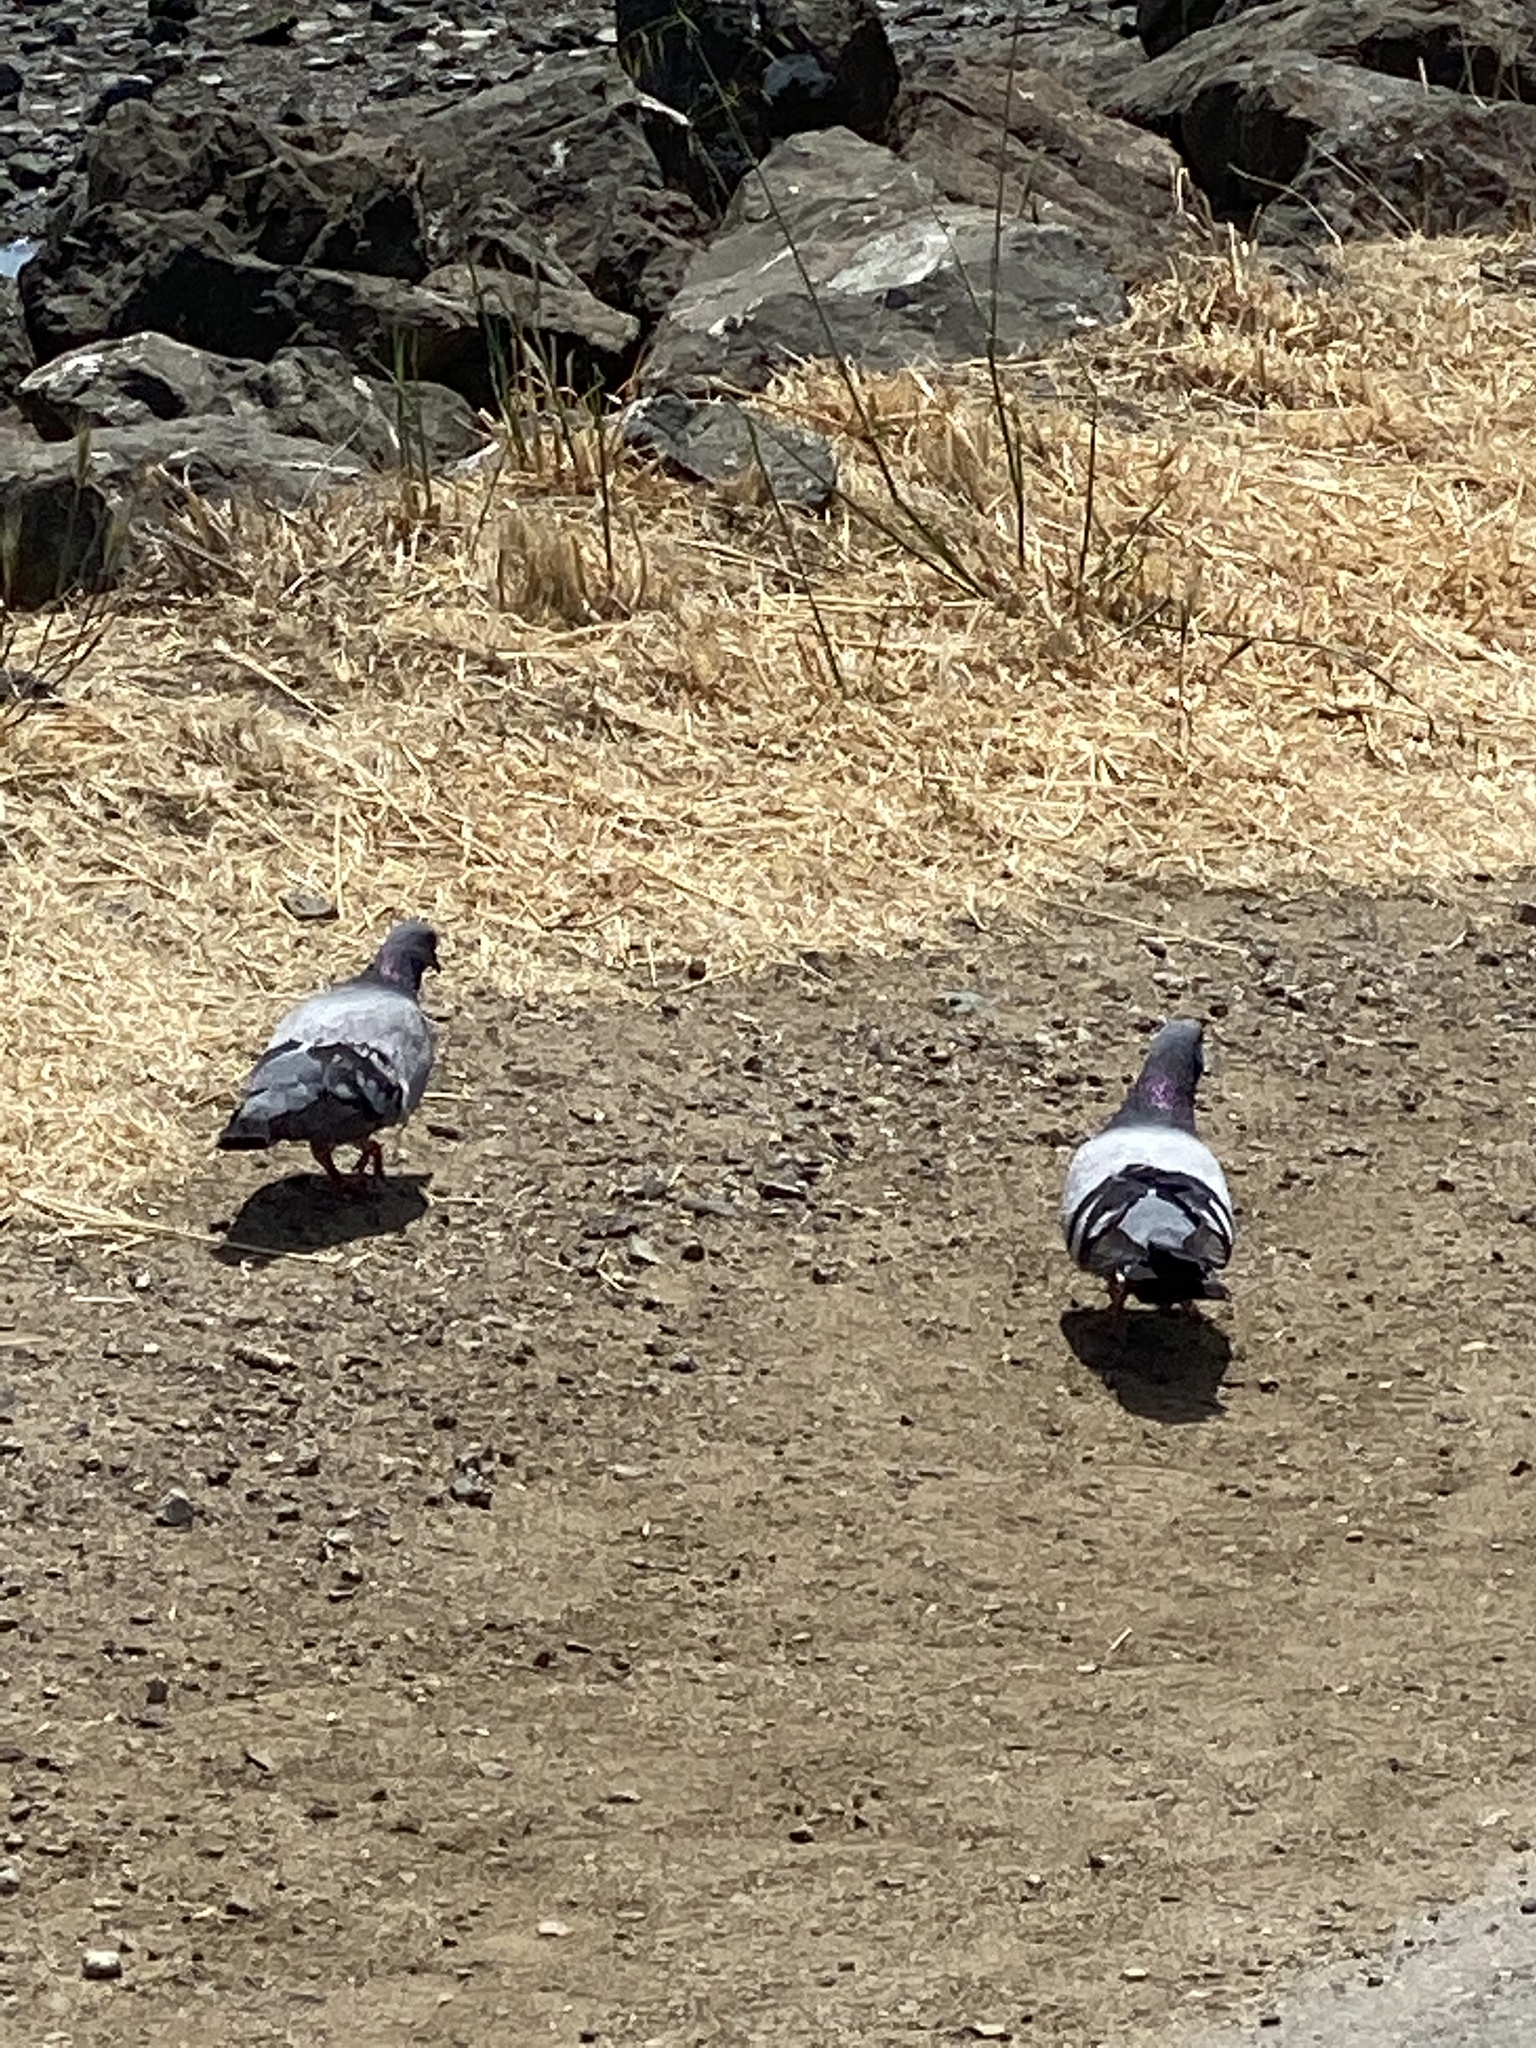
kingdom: Animalia
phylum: Chordata
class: Aves
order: Columbiformes
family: Columbidae
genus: Columba
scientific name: Columba livia
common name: Rock pigeon
